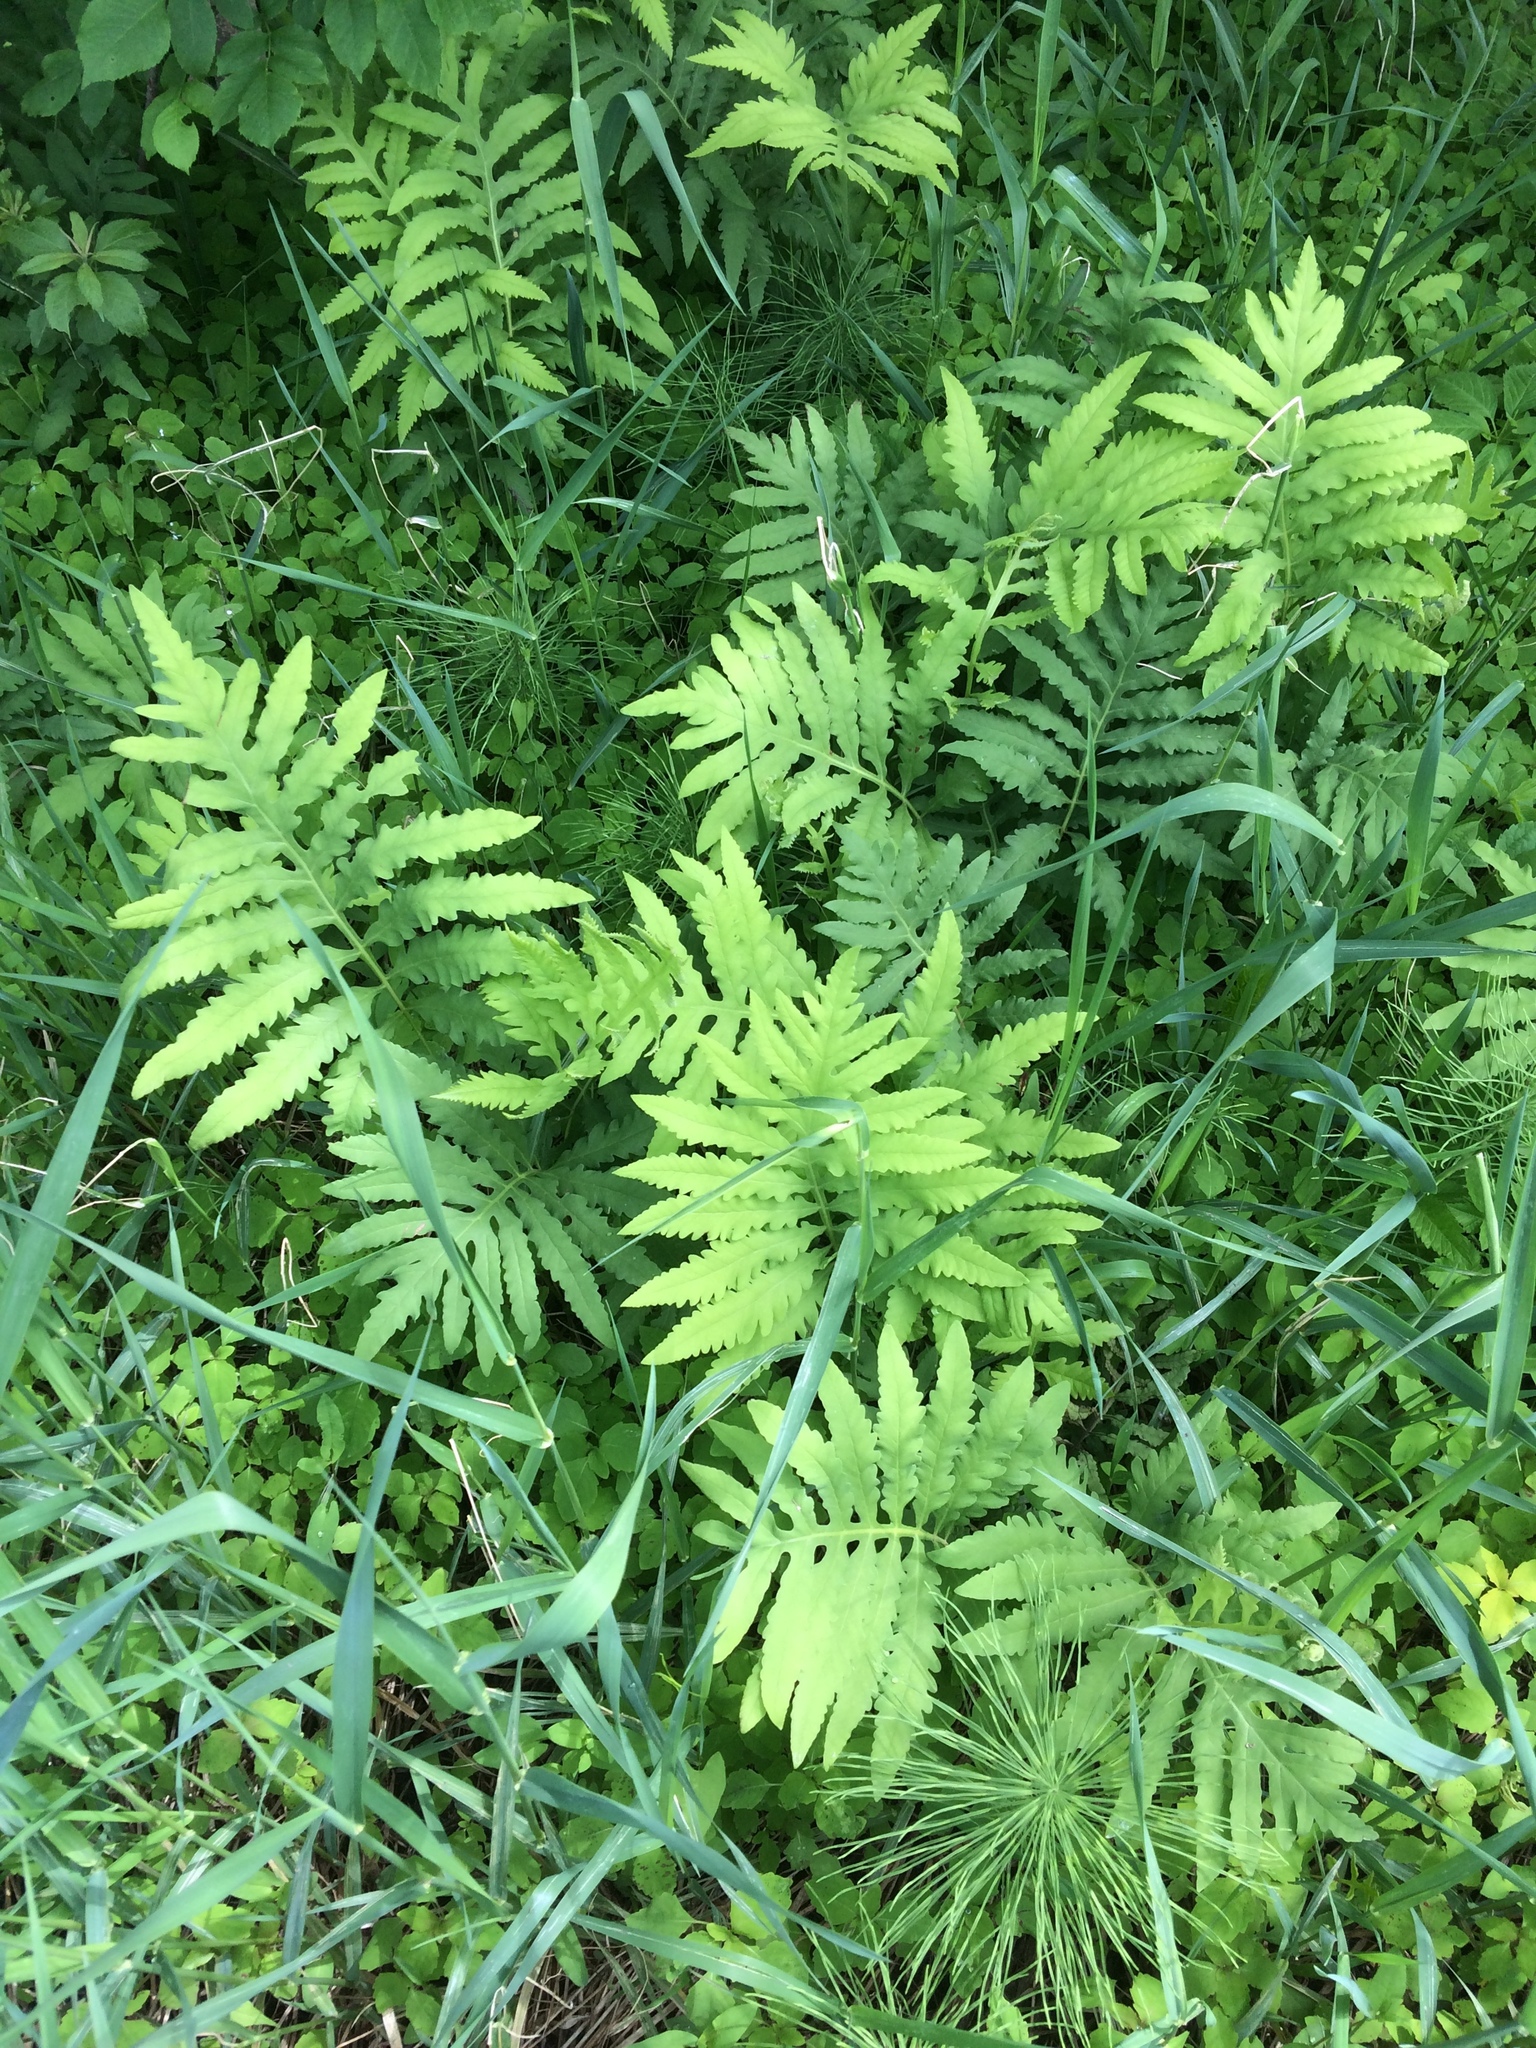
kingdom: Plantae
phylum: Tracheophyta
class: Polypodiopsida
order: Polypodiales
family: Onocleaceae
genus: Onoclea
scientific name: Onoclea sensibilis
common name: Sensitive fern
